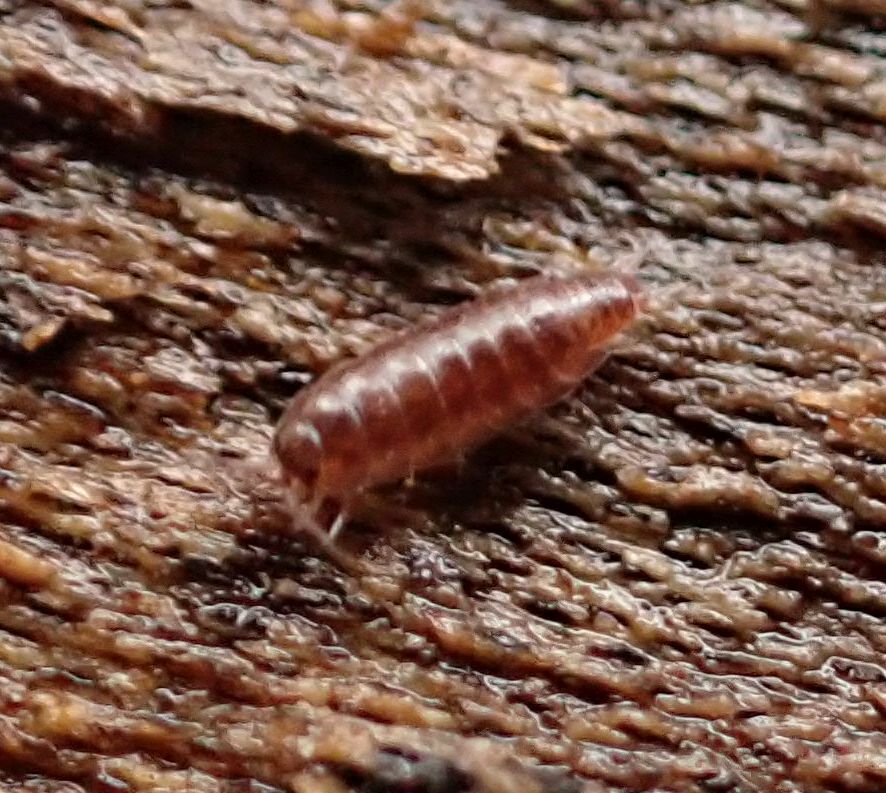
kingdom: Animalia
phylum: Arthropoda
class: Malacostraca
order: Isopoda
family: Trichoniscidae
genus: Trichoniscus
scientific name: Trichoniscus
